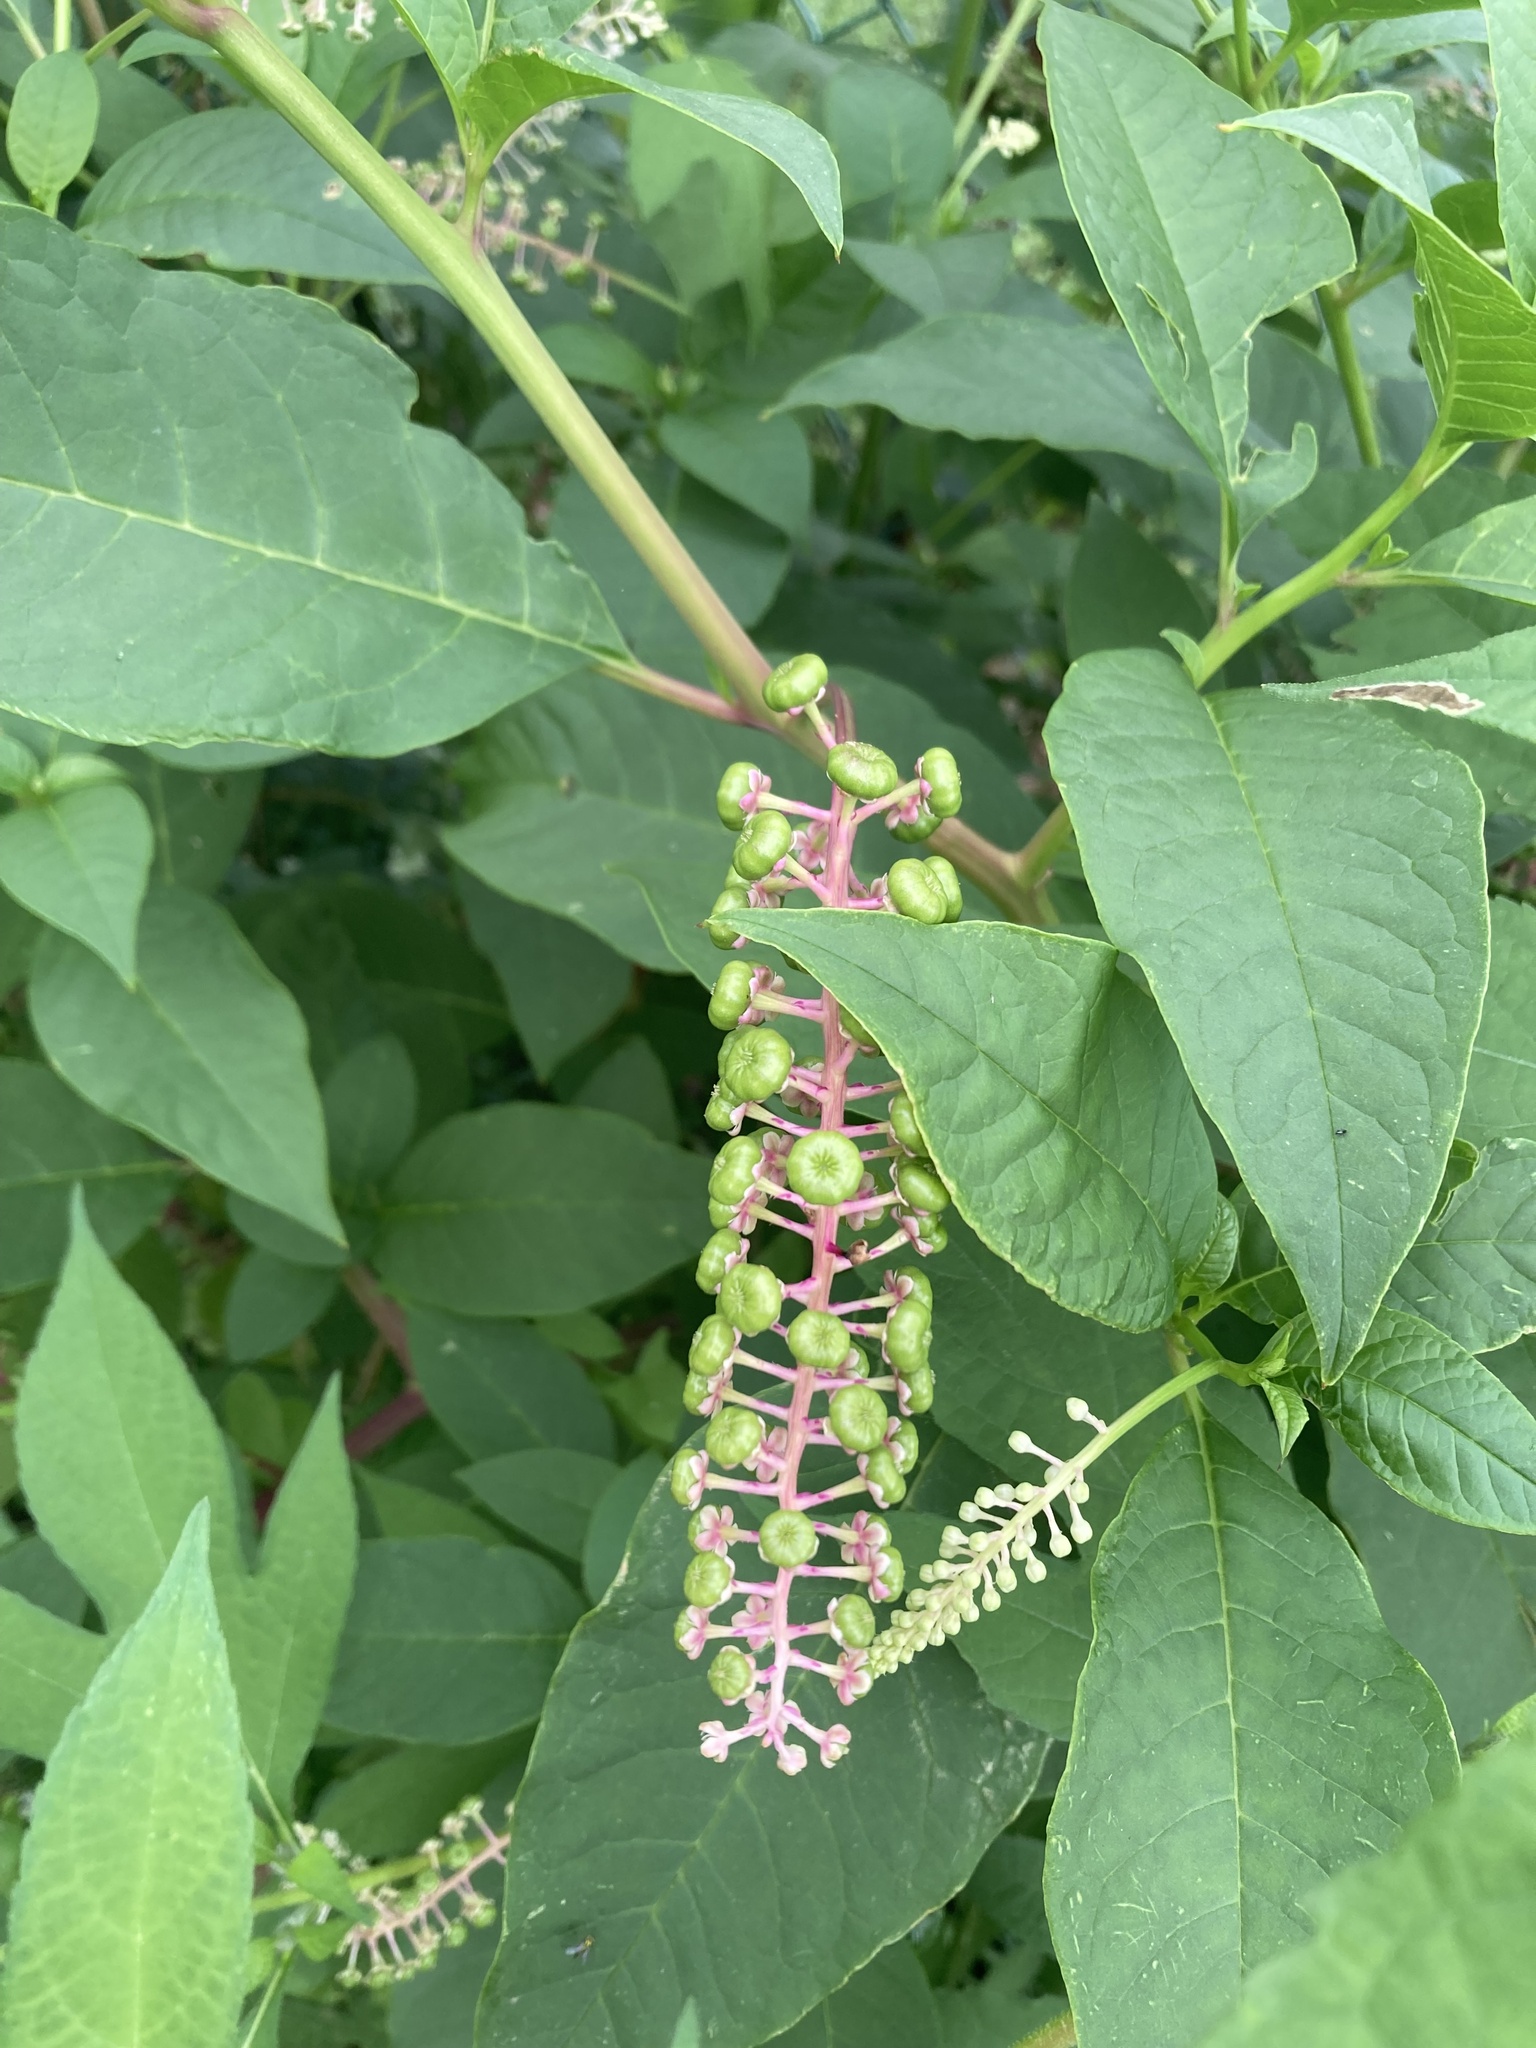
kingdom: Plantae
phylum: Tracheophyta
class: Magnoliopsida
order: Caryophyllales
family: Phytolaccaceae
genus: Phytolacca
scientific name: Phytolacca americana
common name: American pokeweed
